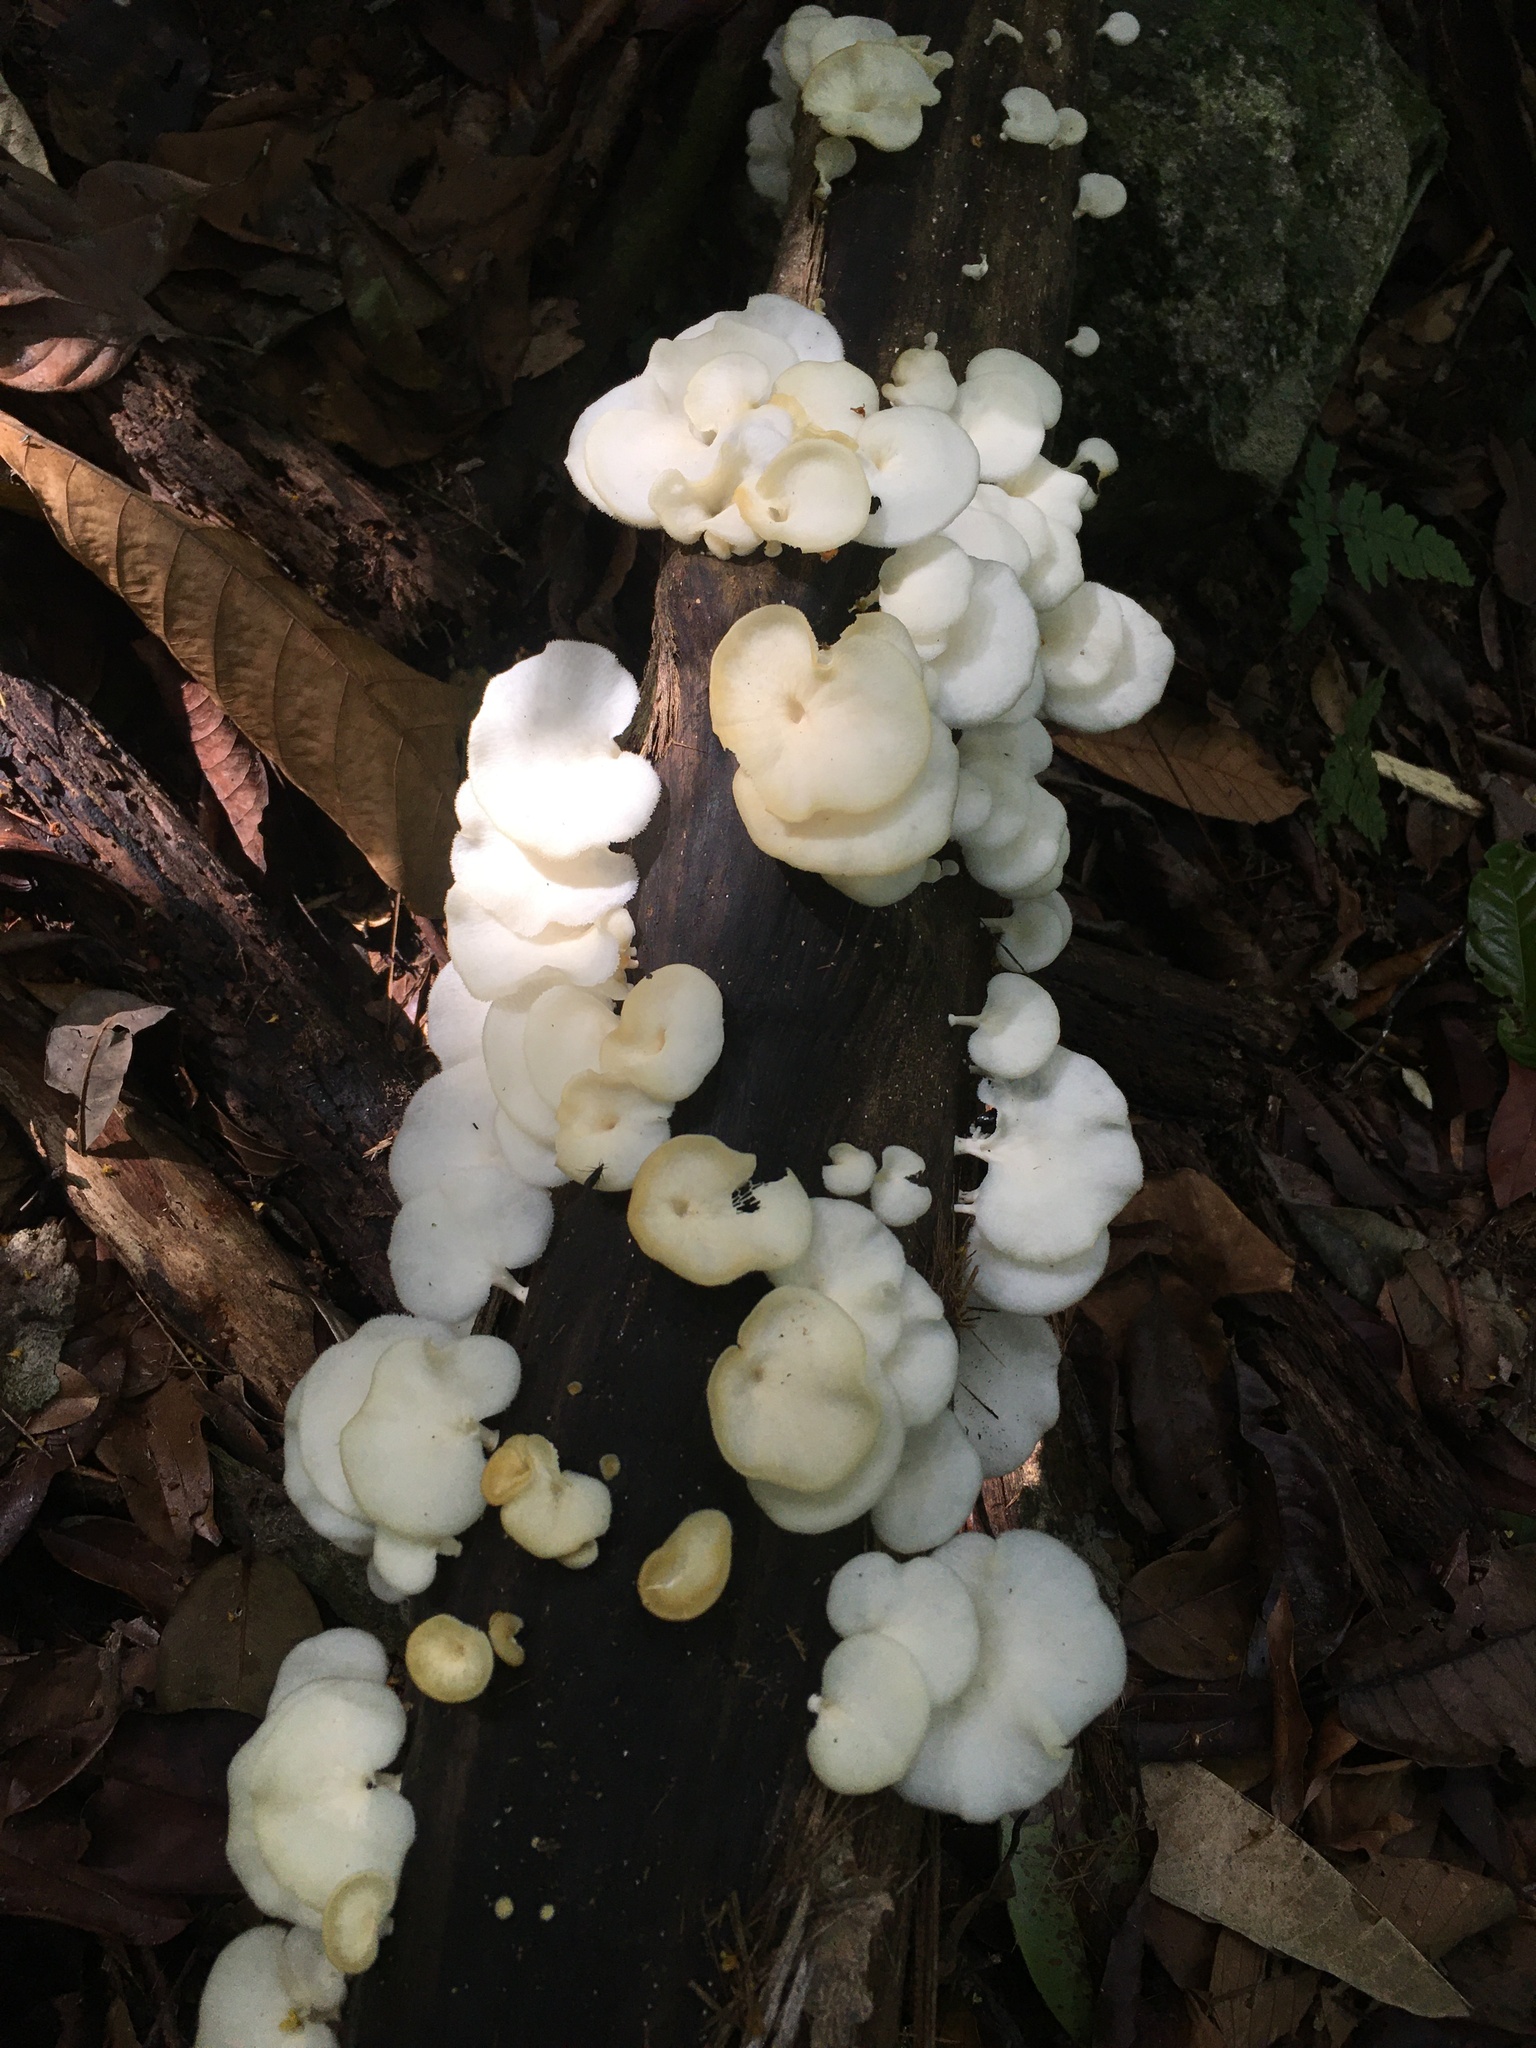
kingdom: Fungi
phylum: Basidiomycota
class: Agaricomycetes
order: Polyporales
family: Polyporaceae
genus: Favolus
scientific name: Favolus tenuiculus
